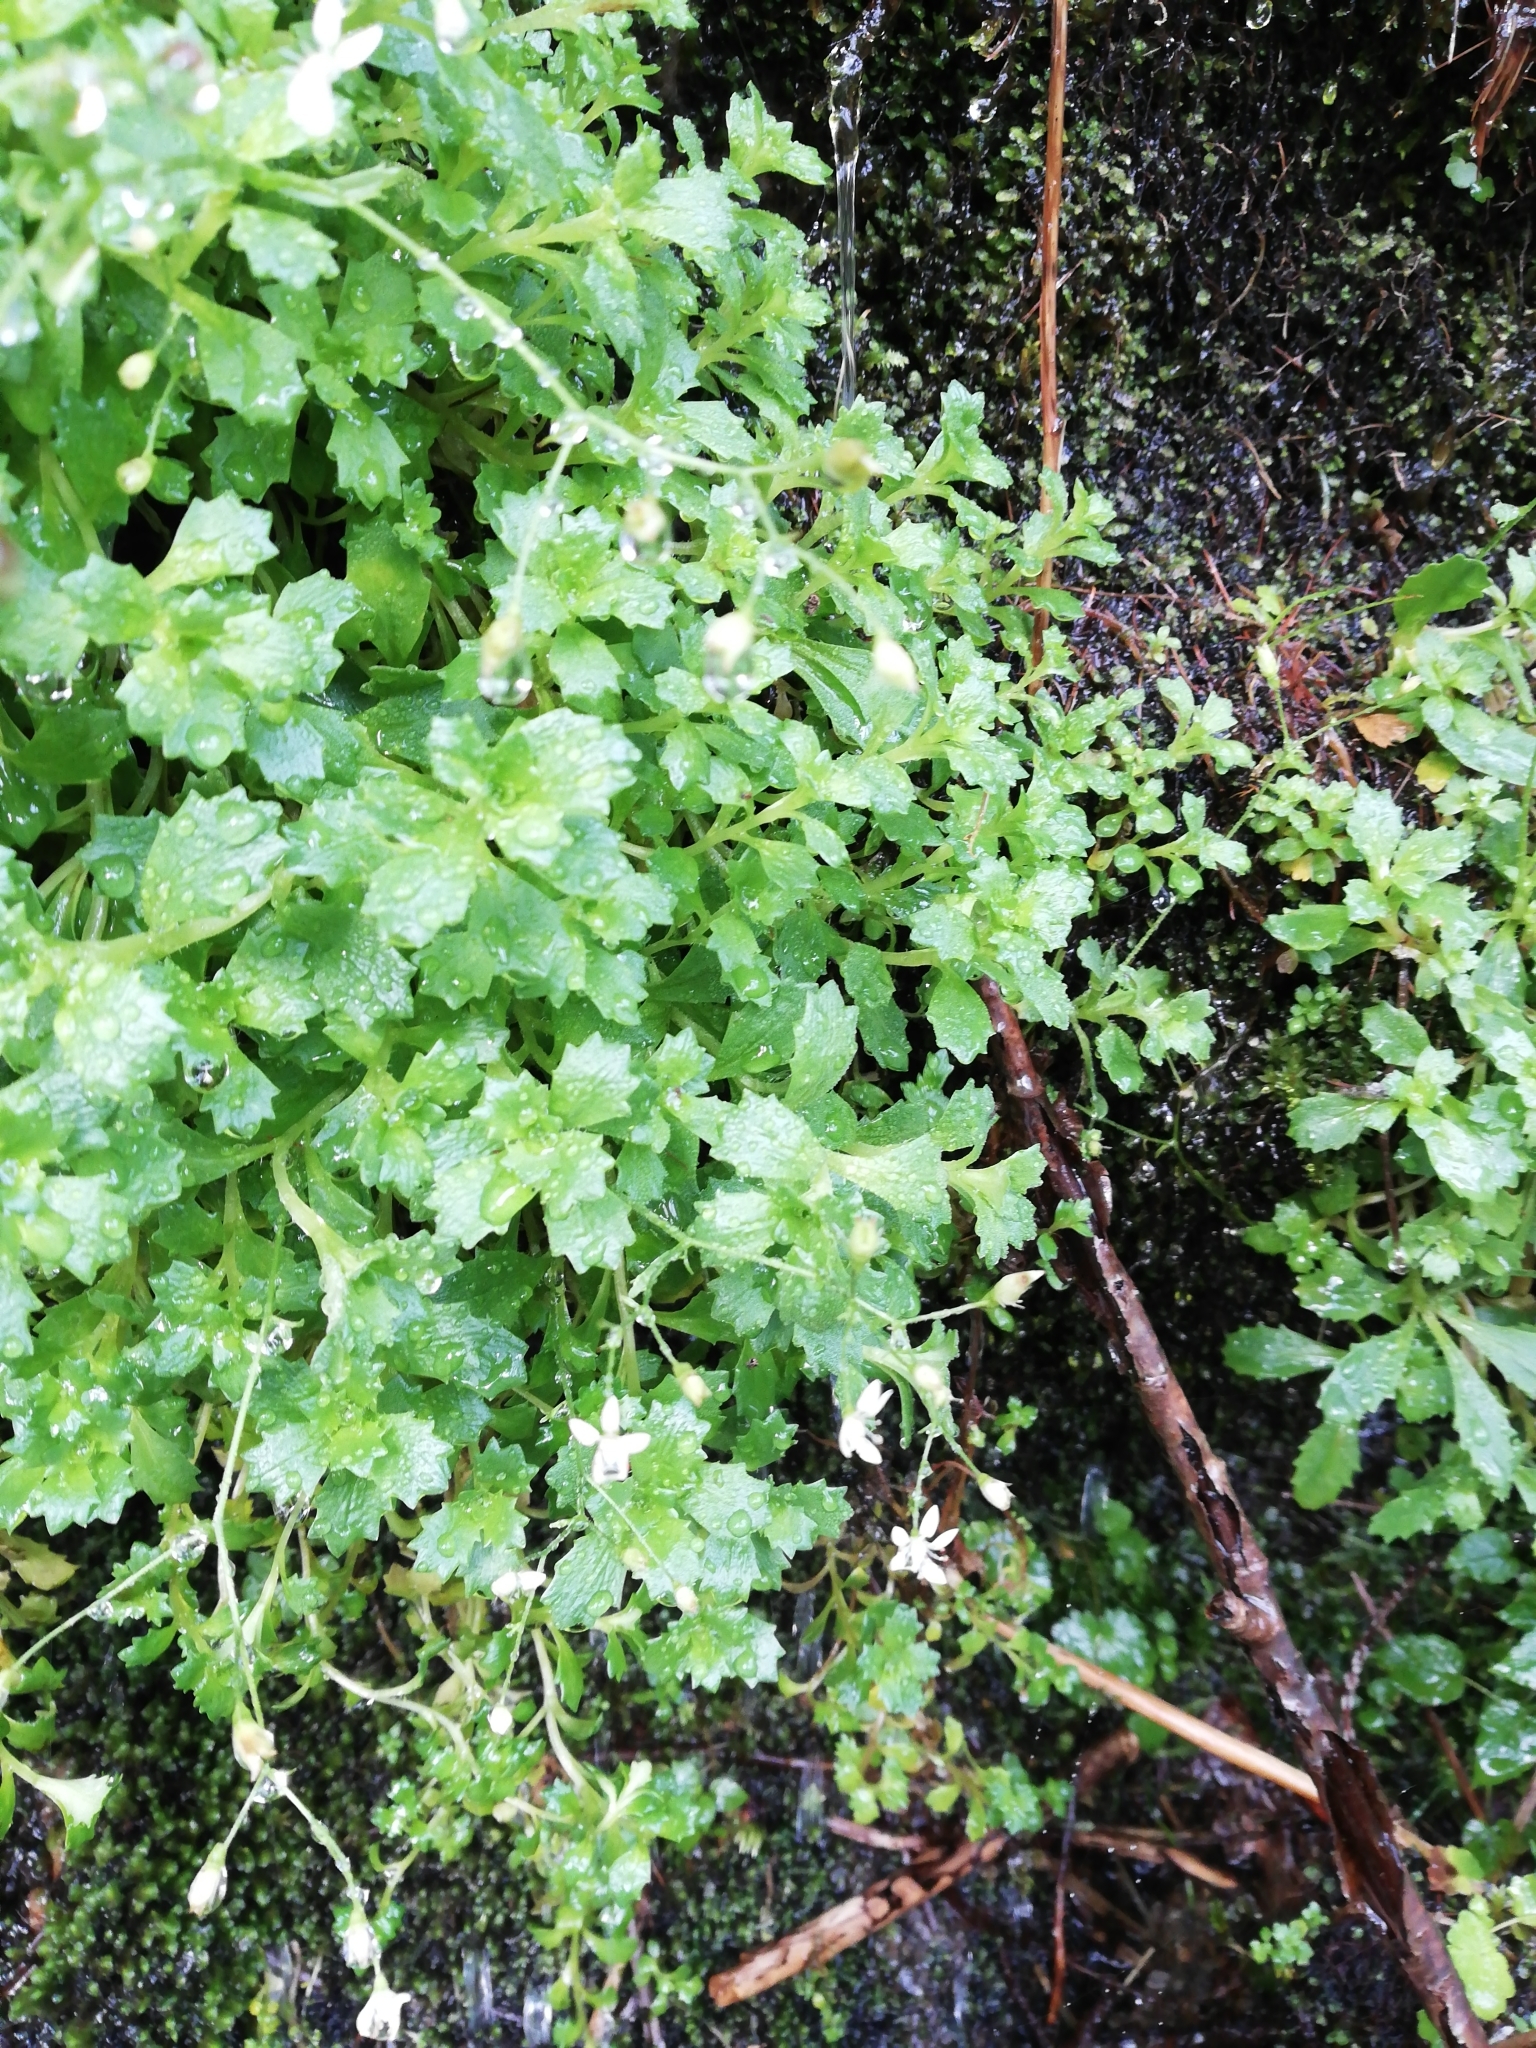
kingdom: Plantae
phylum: Tracheophyta
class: Magnoliopsida
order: Saxifragales
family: Saxifragaceae
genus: Micranthes
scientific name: Micranthes stellaris
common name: Starry saxifrage
